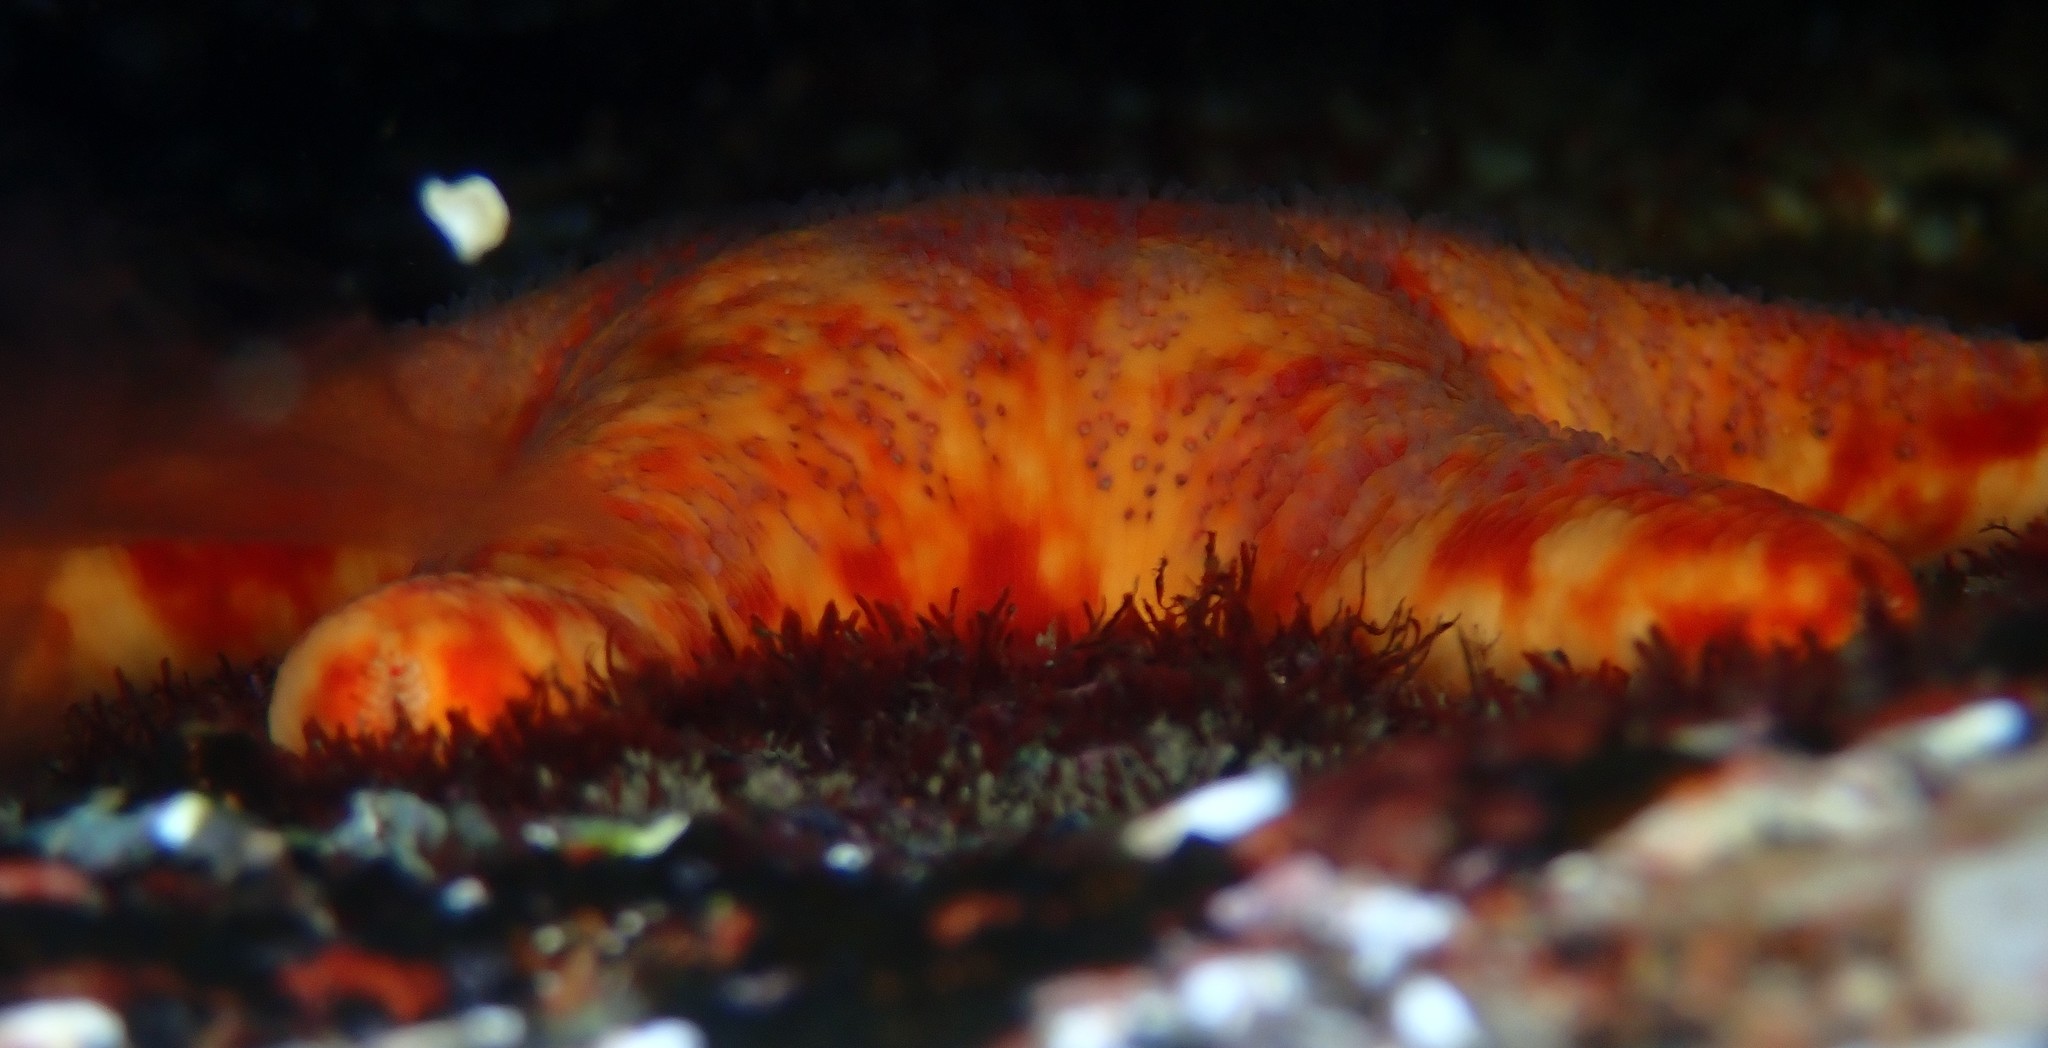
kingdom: Animalia
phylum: Echinodermata
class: Asteroidea
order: Valvatida
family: Asteropseidae
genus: Petricia
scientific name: Petricia vernicina
